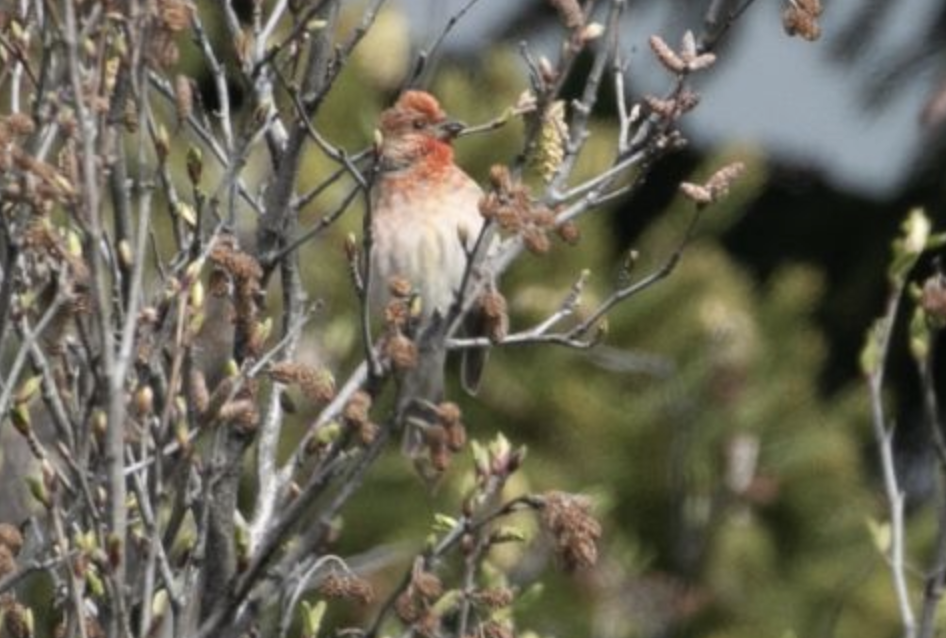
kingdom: Animalia
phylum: Chordata
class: Aves
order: Passeriformes
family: Fringillidae
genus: Carpodacus
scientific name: Carpodacus erythrinus
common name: Common rosefinch
